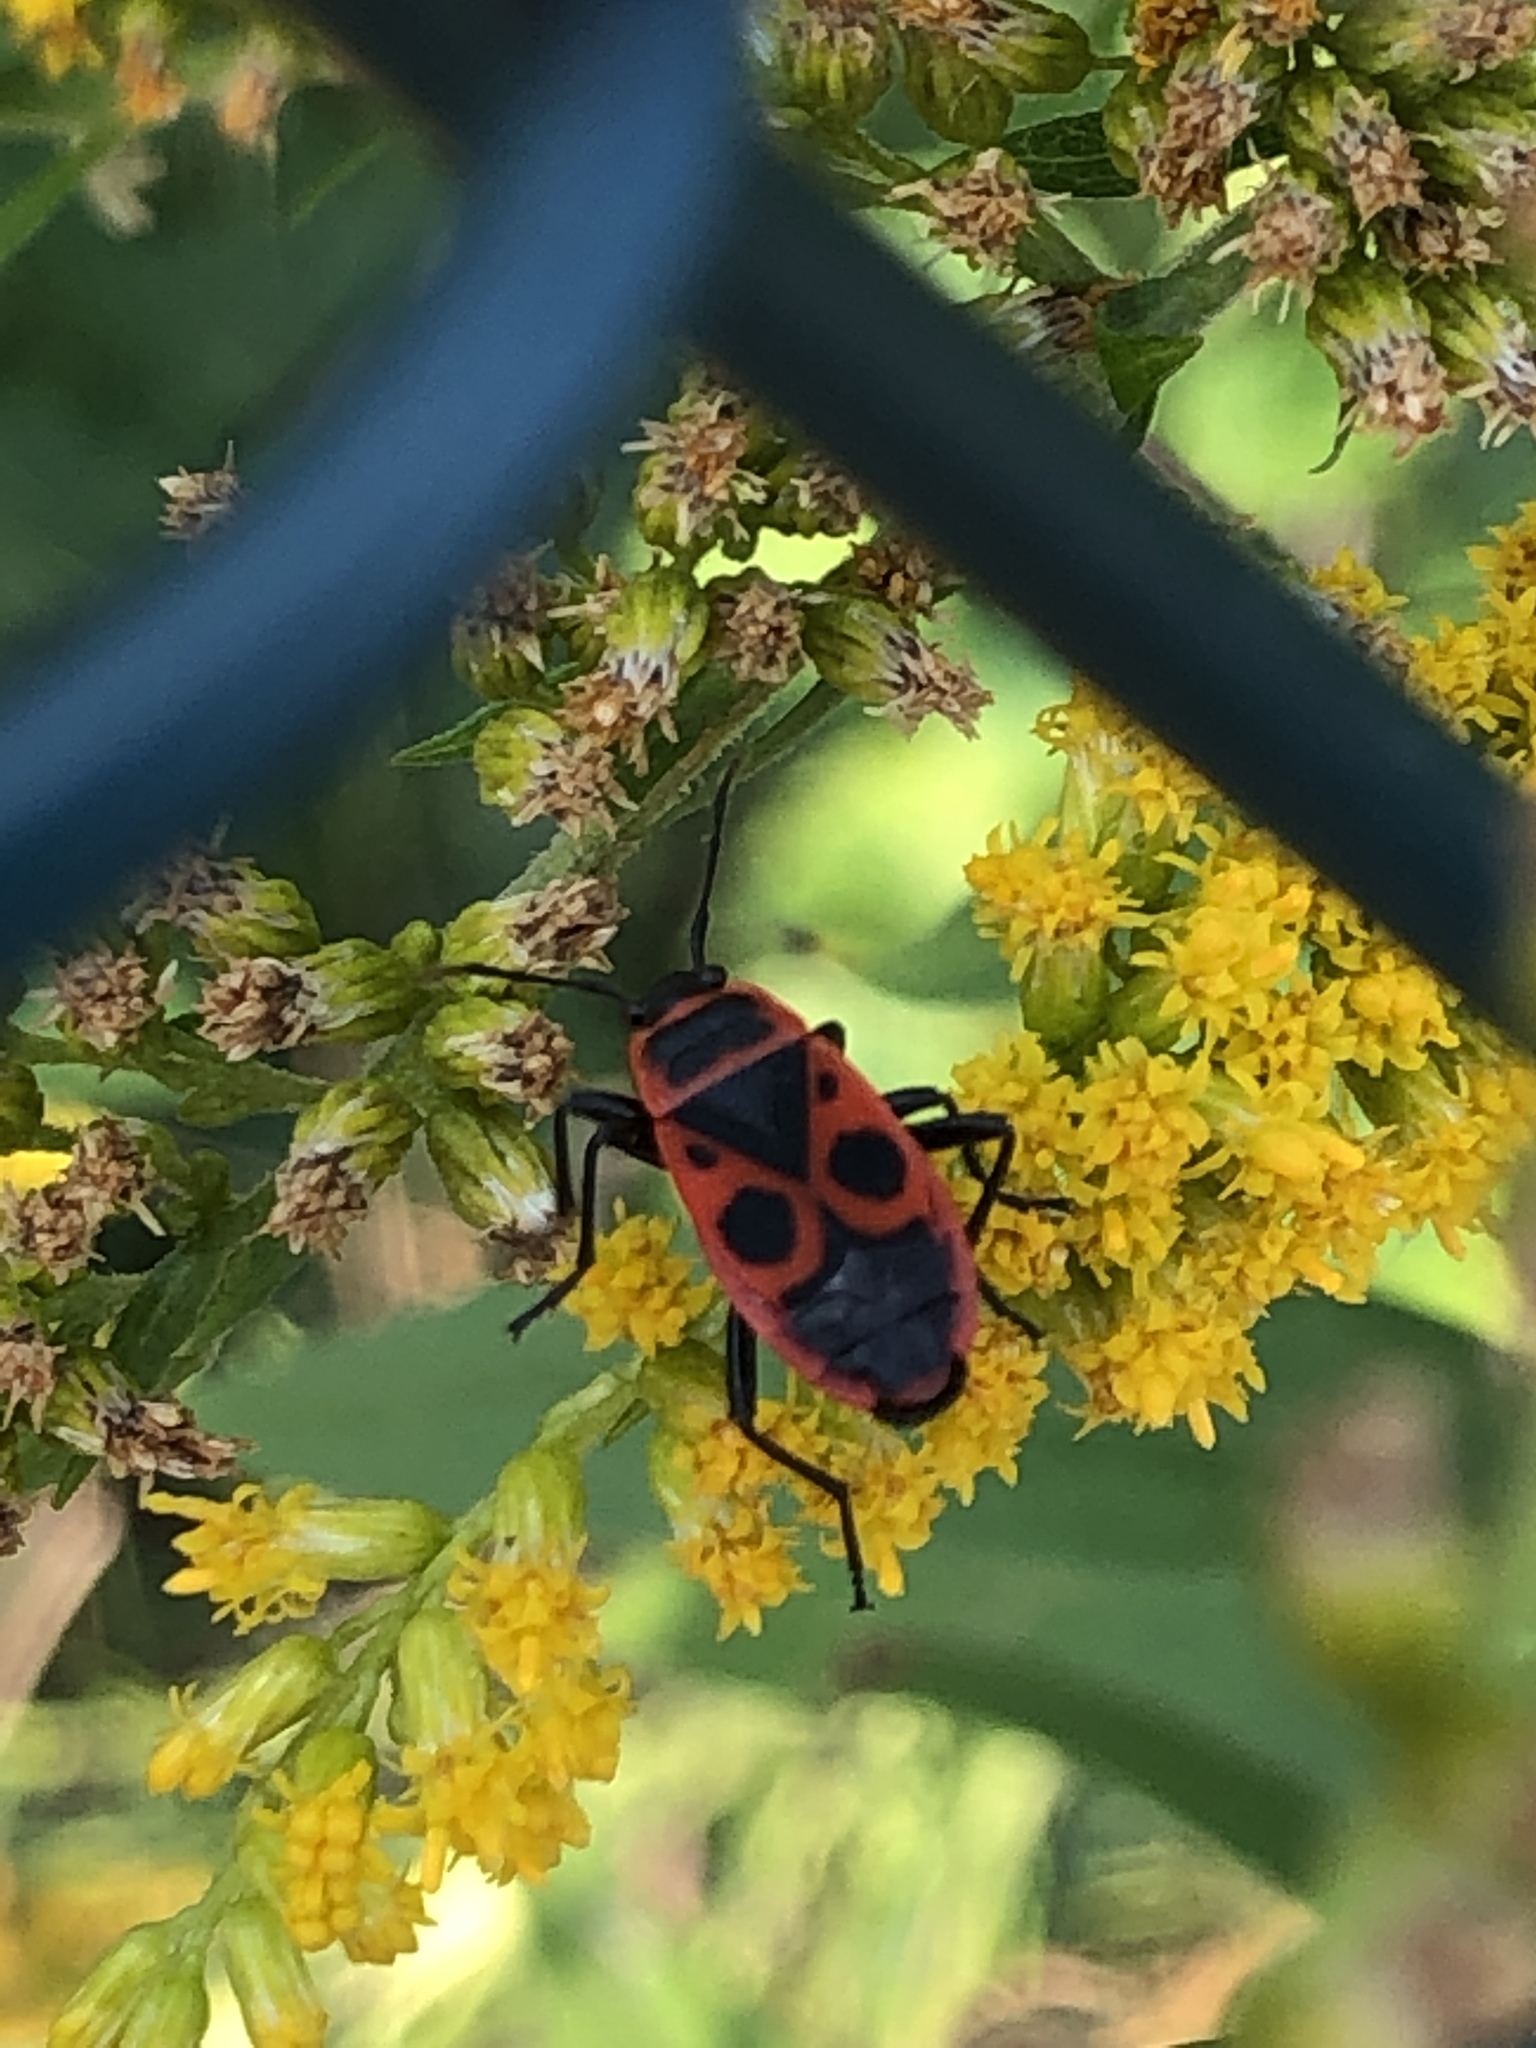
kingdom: Animalia
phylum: Arthropoda
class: Insecta
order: Hemiptera
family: Pyrrhocoridae
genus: Pyrrhocoris
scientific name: Pyrrhocoris apterus
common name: Firebug
